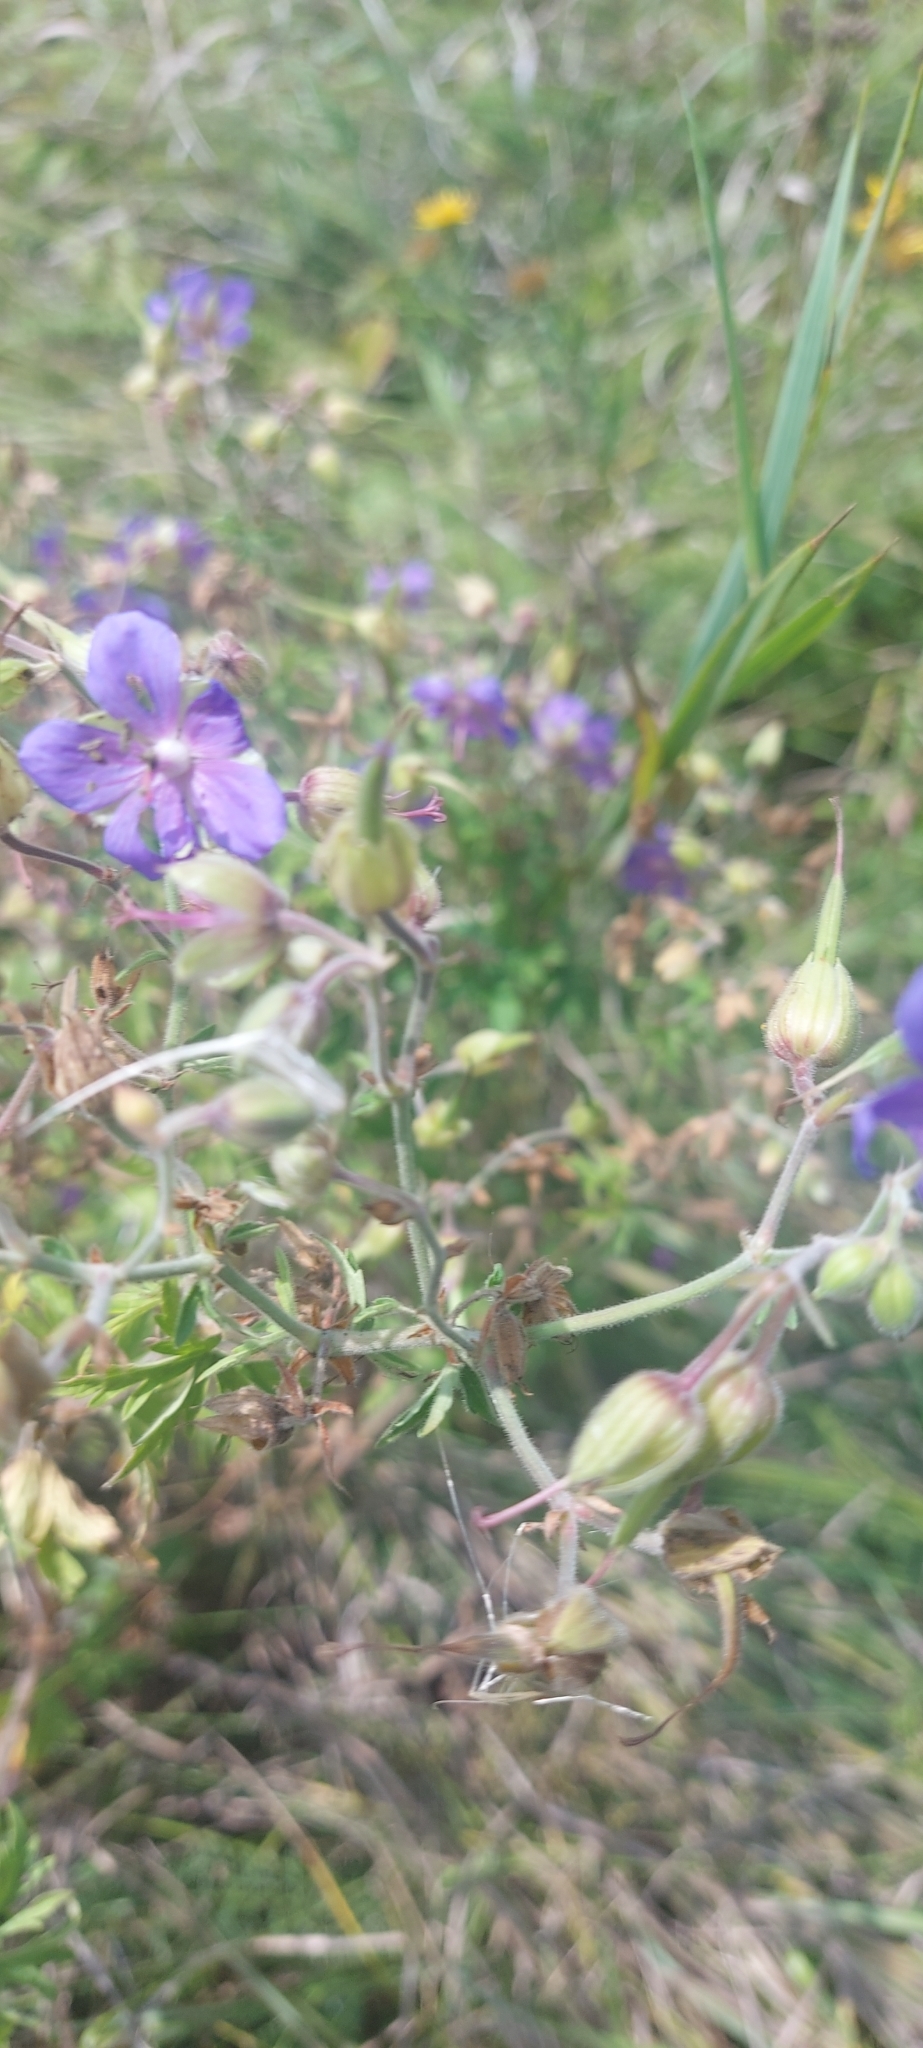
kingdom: Plantae
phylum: Tracheophyta
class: Magnoliopsida
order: Geraniales
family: Geraniaceae
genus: Geranium
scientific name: Geranium pratense
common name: Meadow crane's-bill
